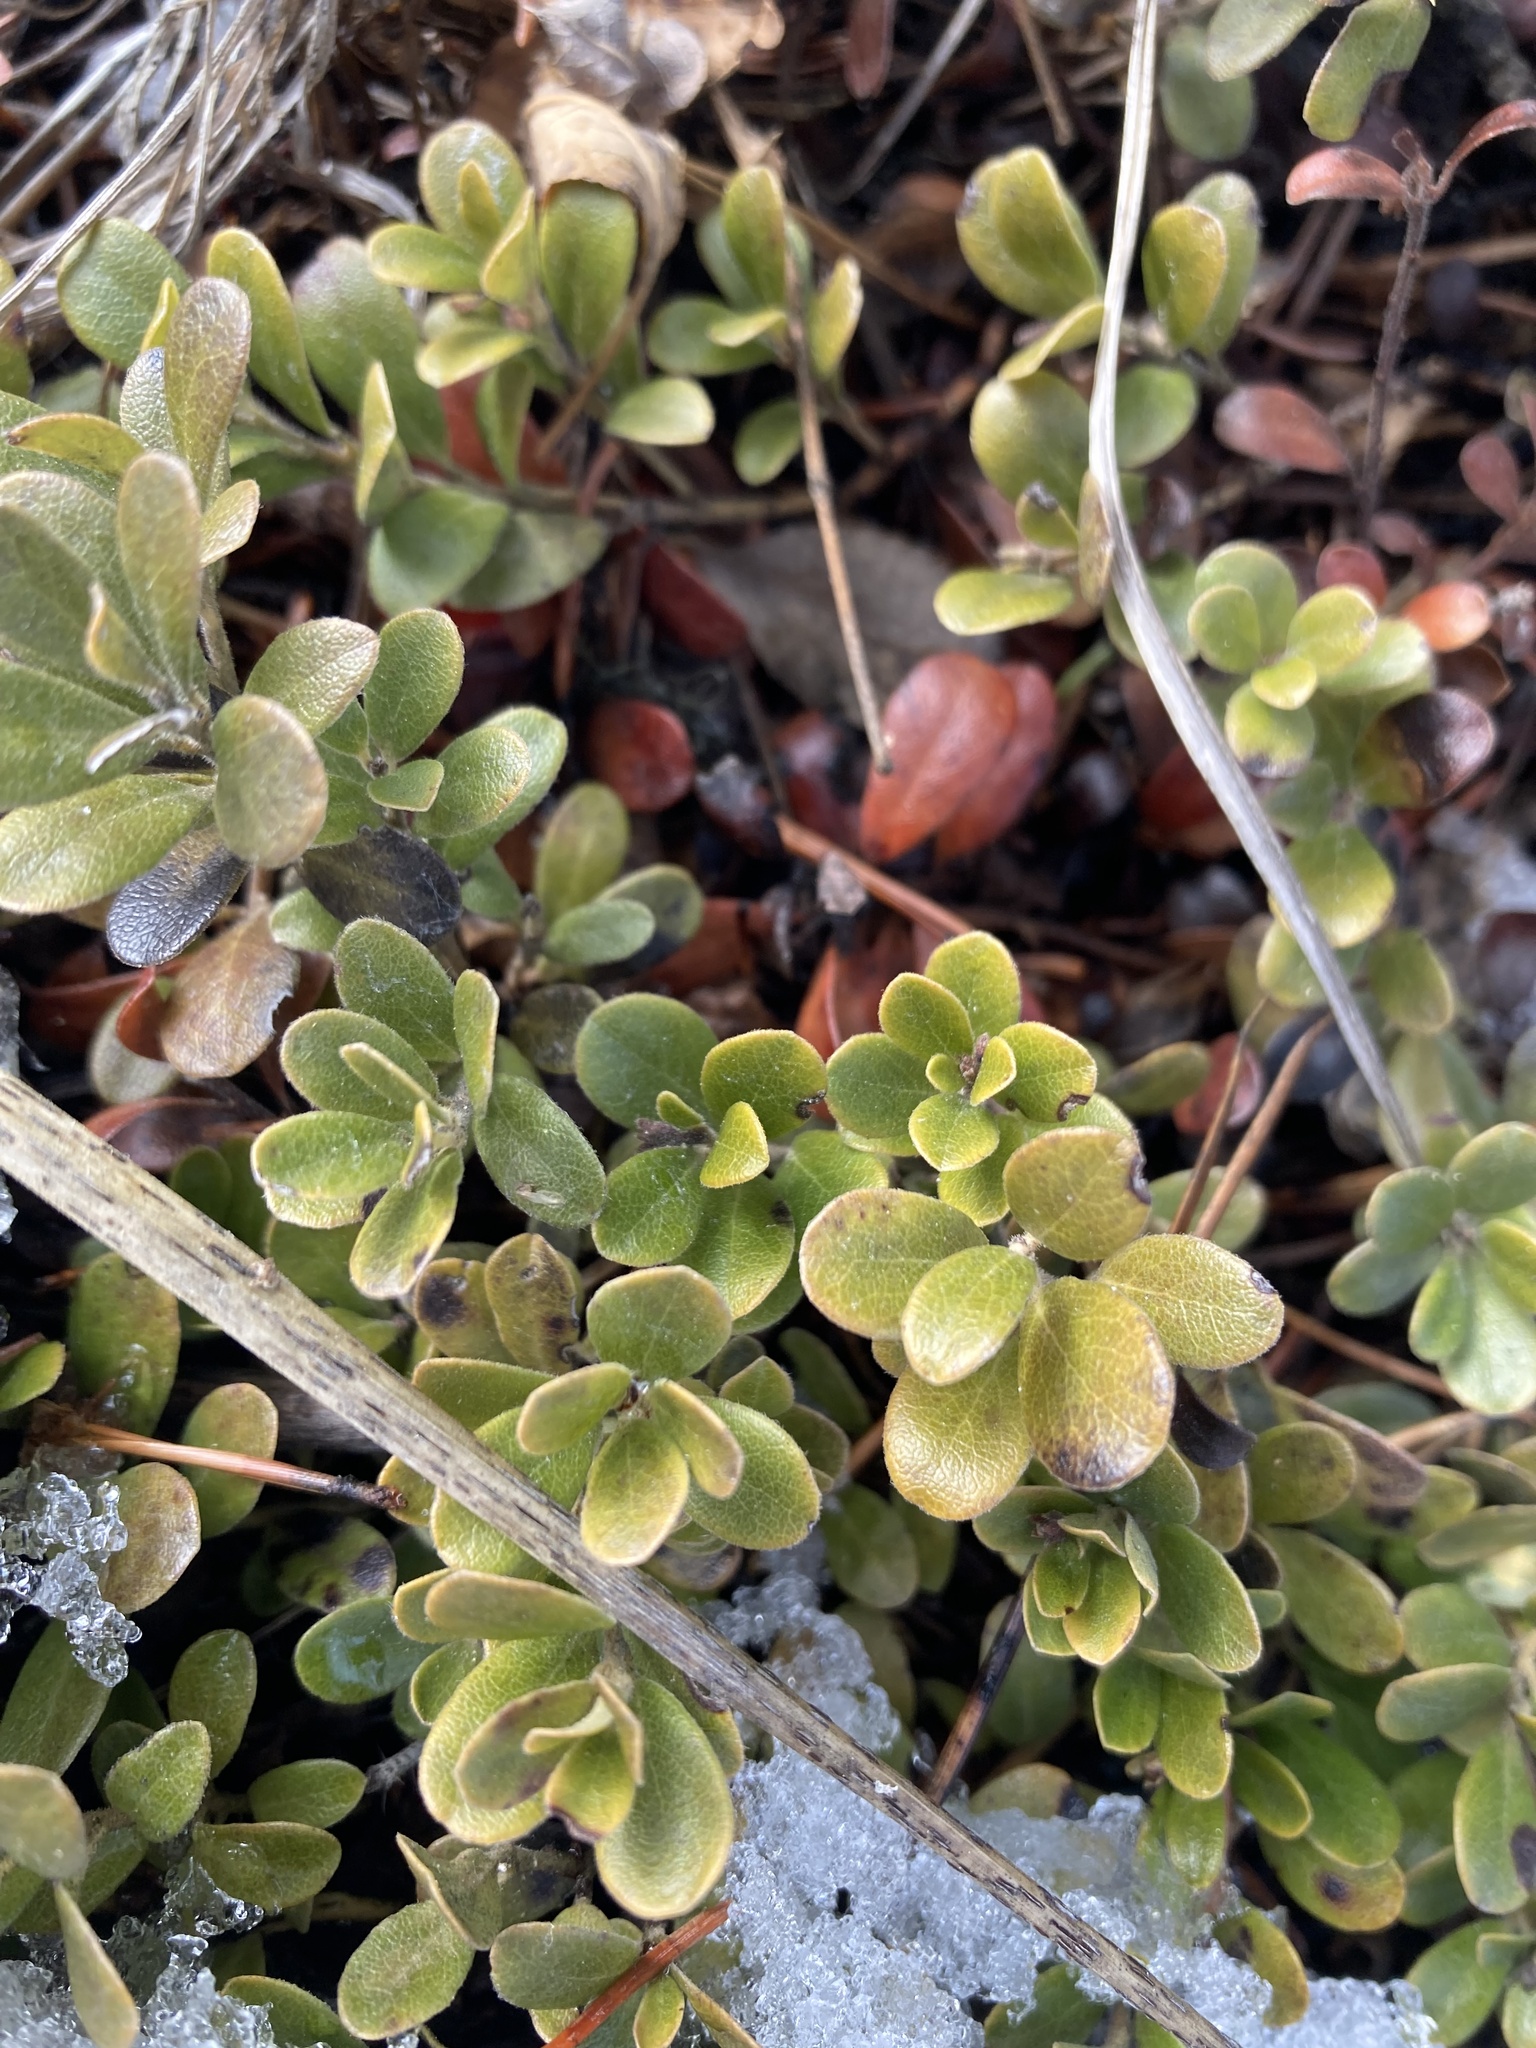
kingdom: Plantae
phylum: Tracheophyta
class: Magnoliopsida
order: Ericales
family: Ericaceae
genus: Arctostaphylos
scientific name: Arctostaphylos uva-ursi
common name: Bearberry
